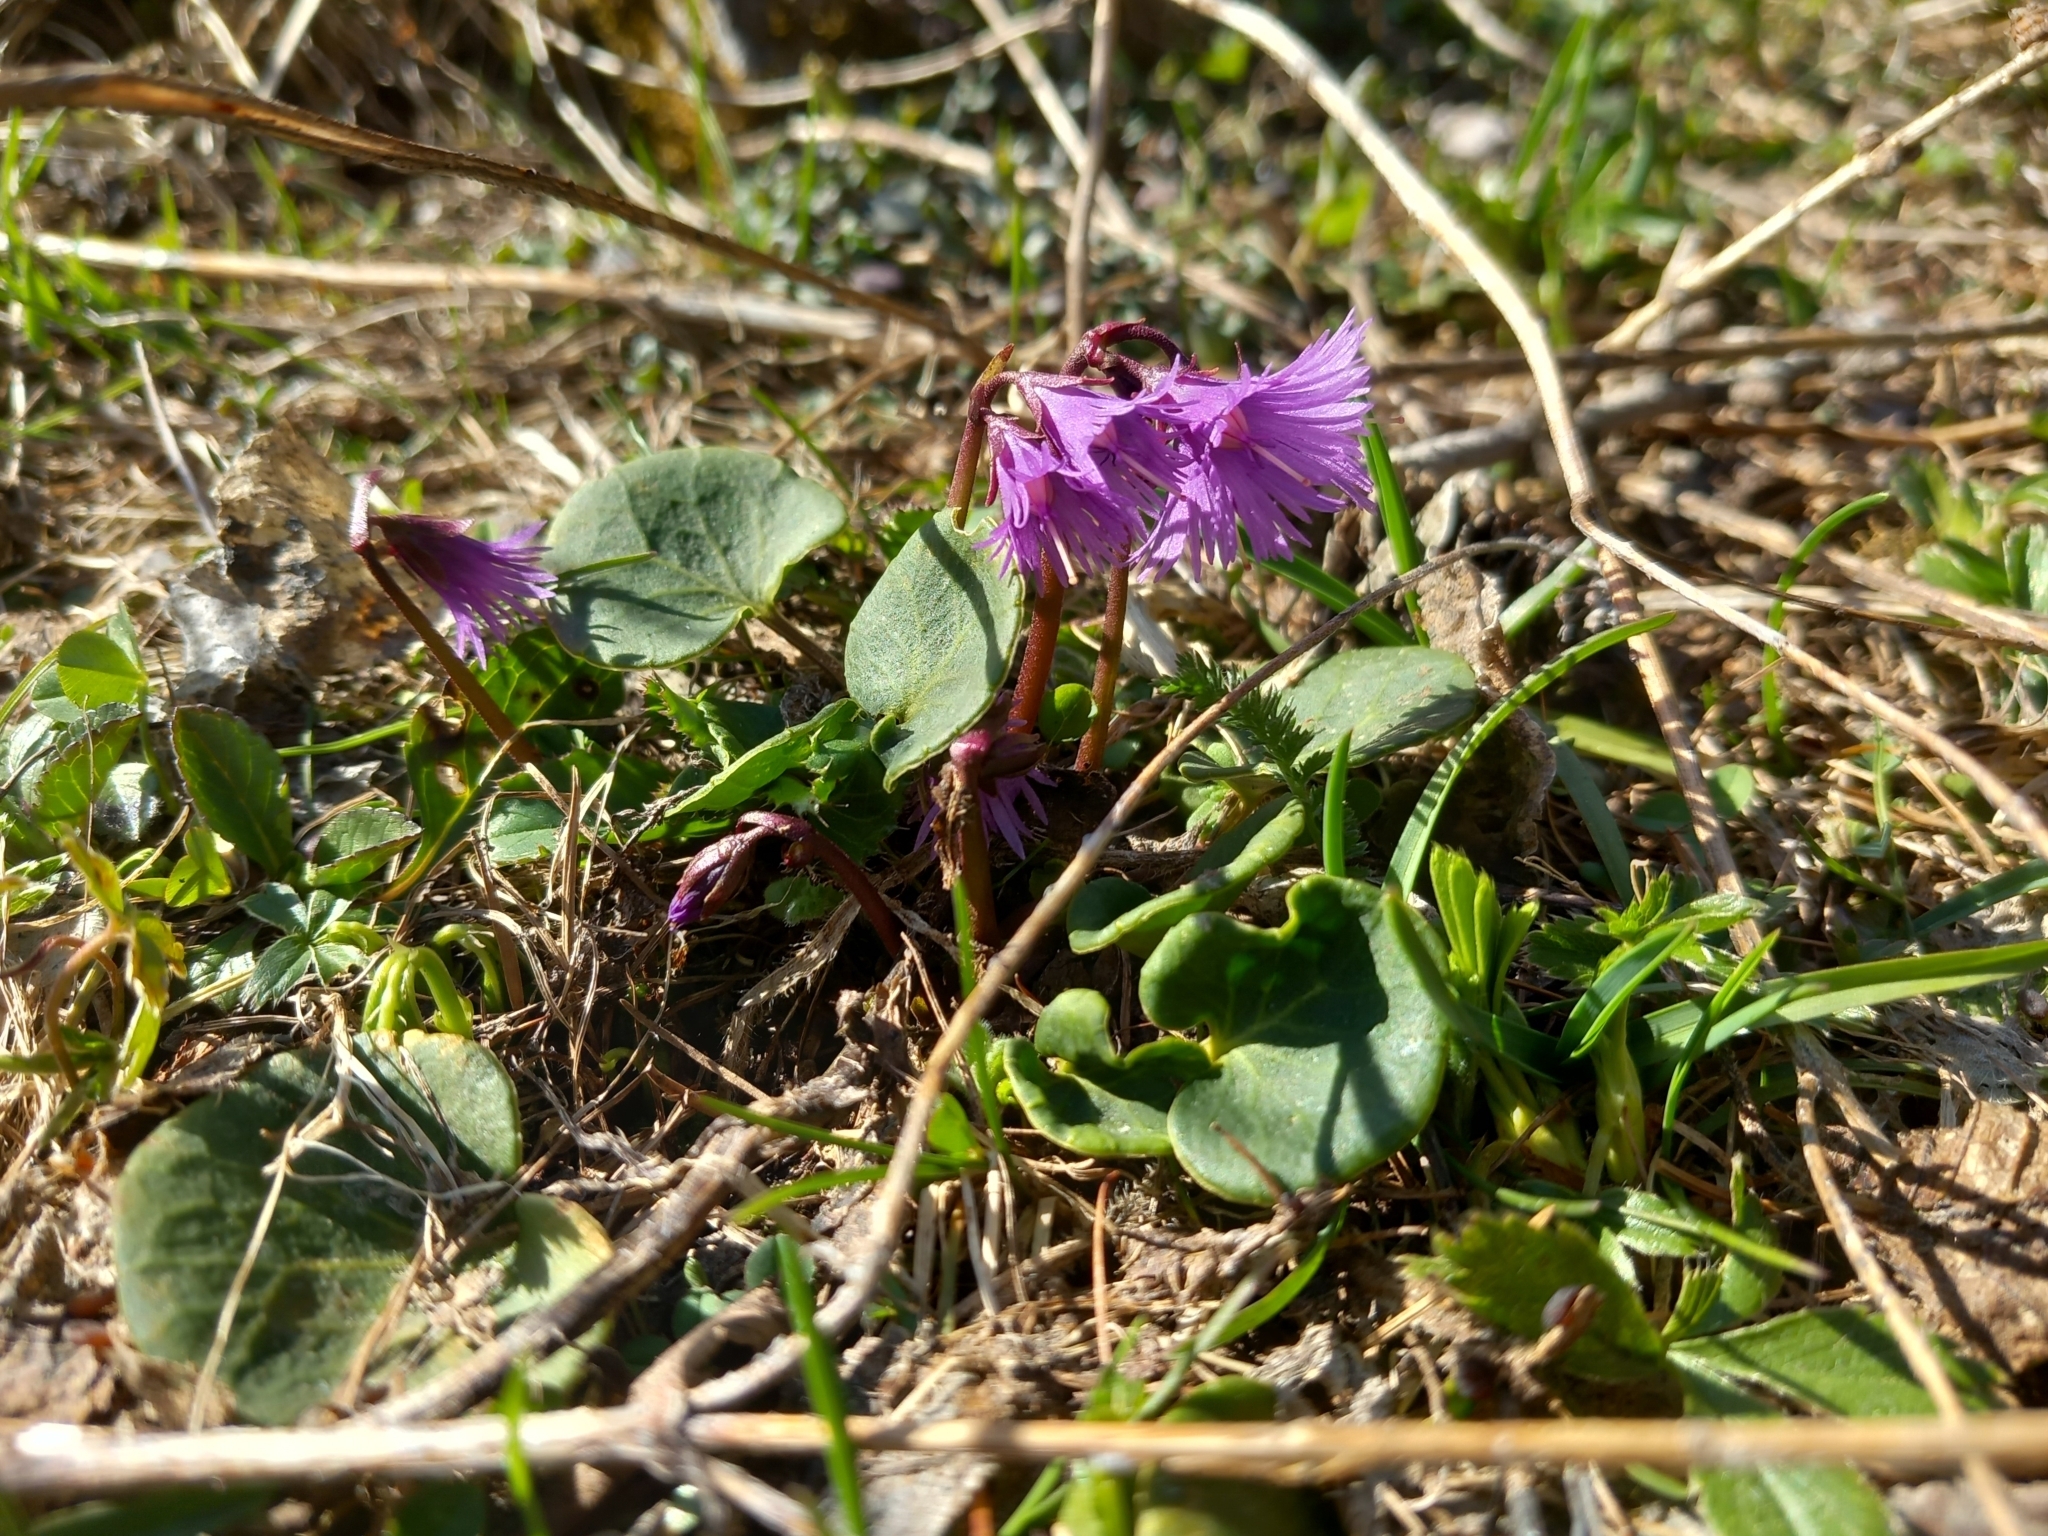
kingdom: Plantae
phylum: Tracheophyta
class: Magnoliopsida
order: Ericales
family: Primulaceae
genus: Soldanella
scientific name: Soldanella alpina
